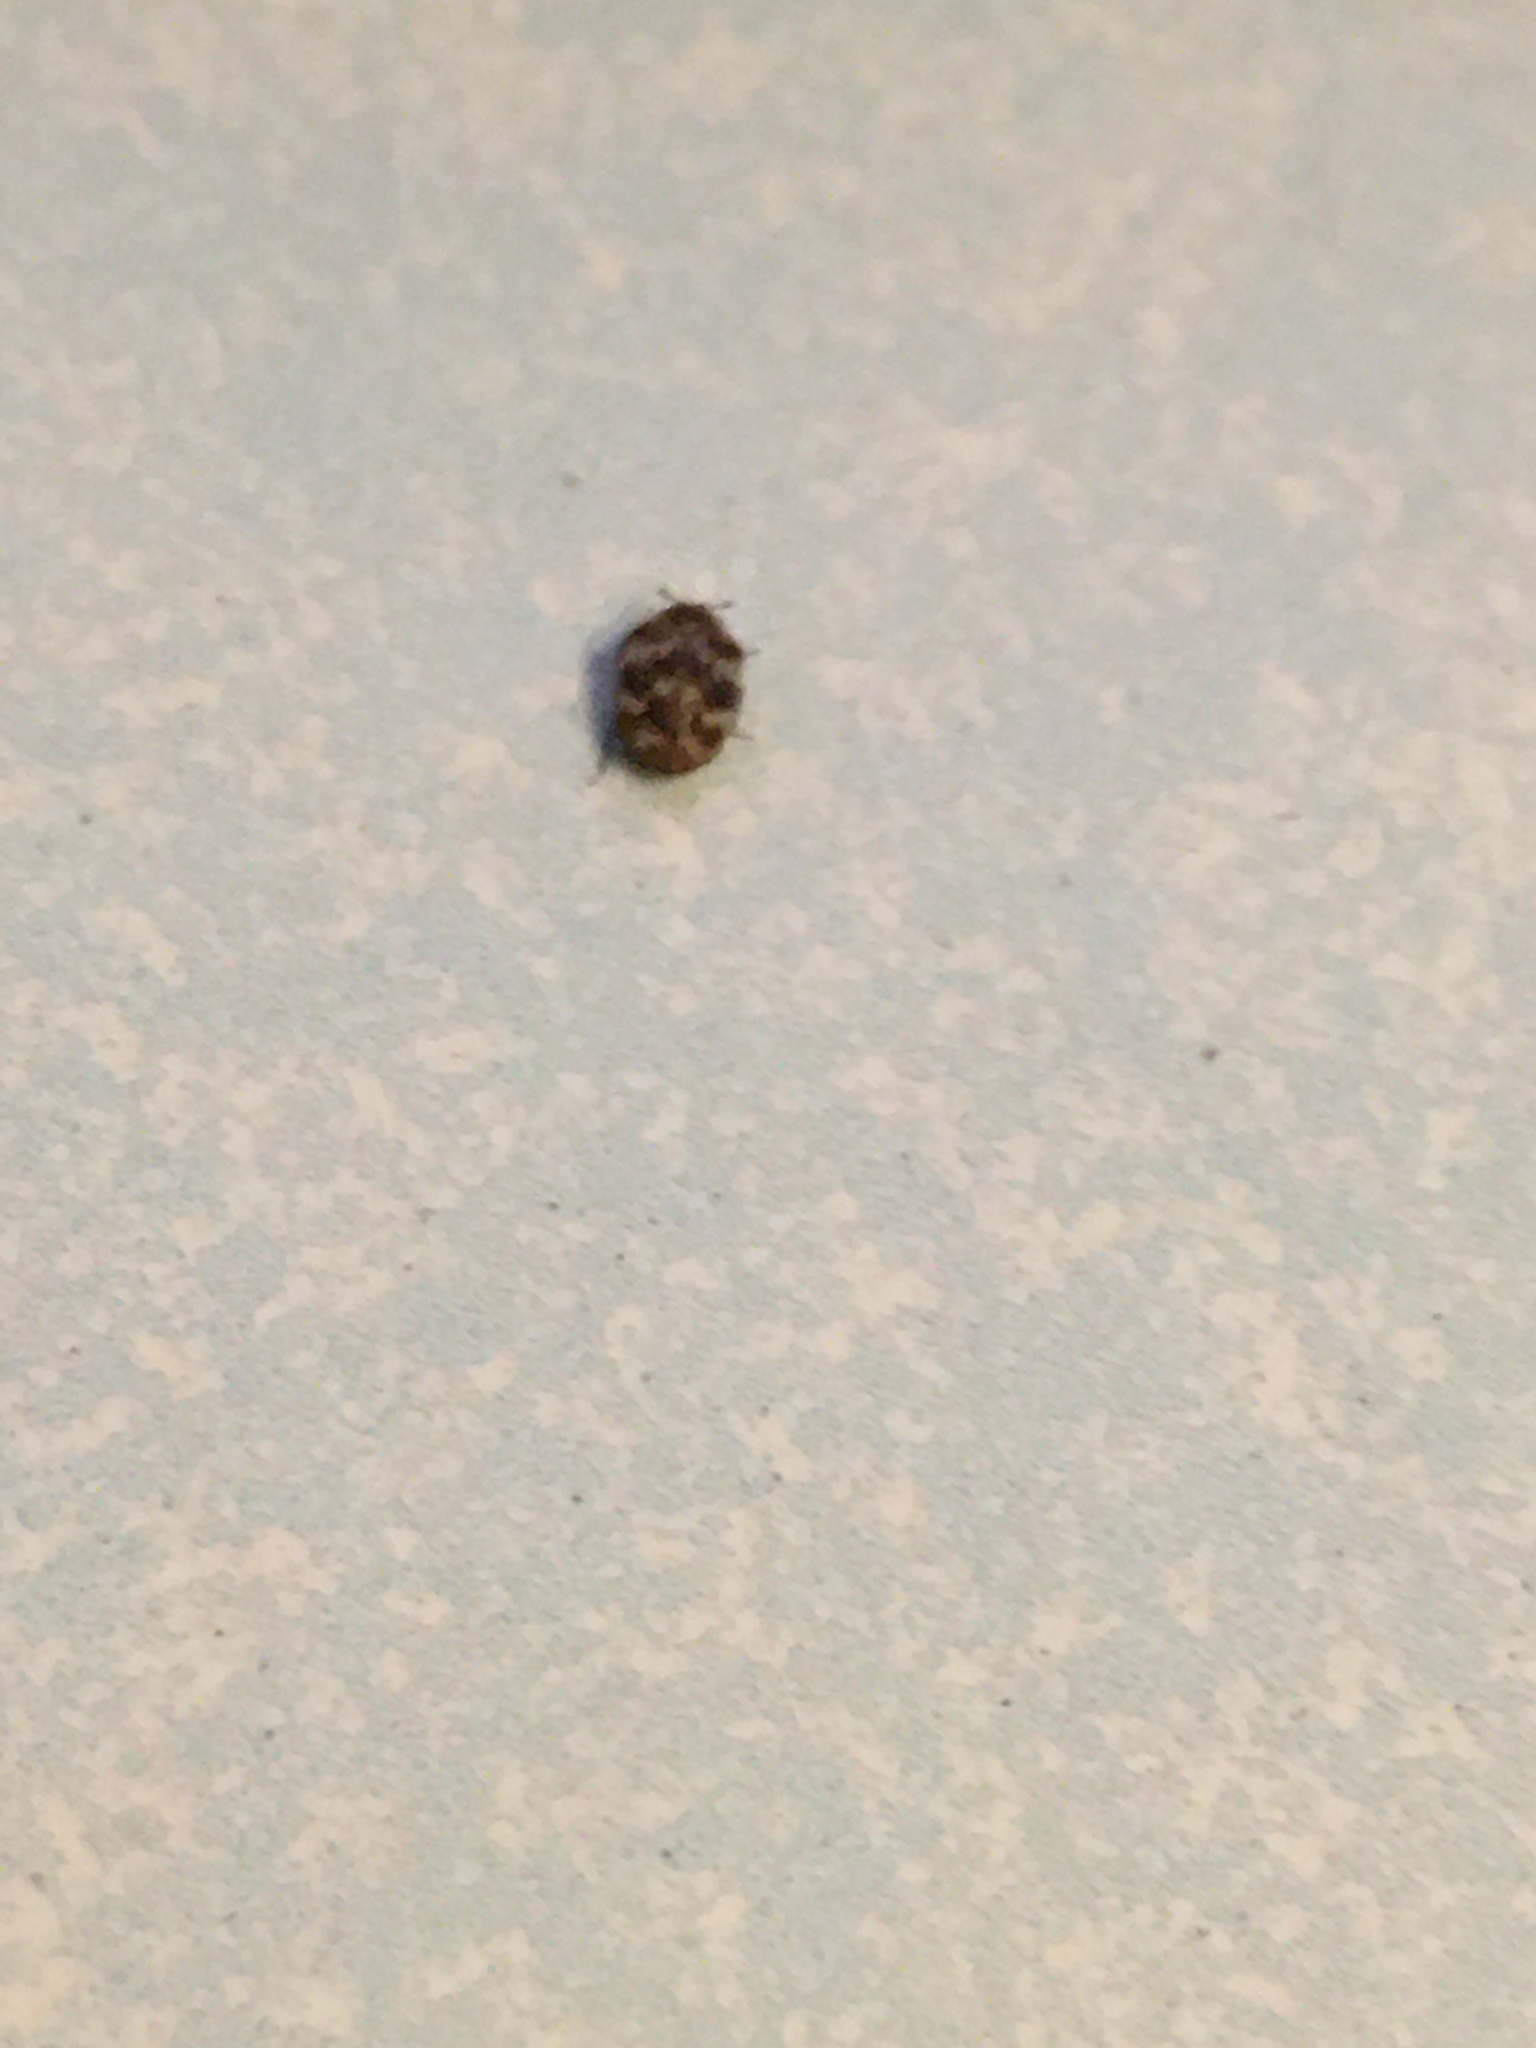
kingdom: Animalia
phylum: Arthropoda
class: Insecta
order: Coleoptera
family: Dermestidae
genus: Anthrenus
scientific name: Anthrenus verbasci
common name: Varied carpet beetle
